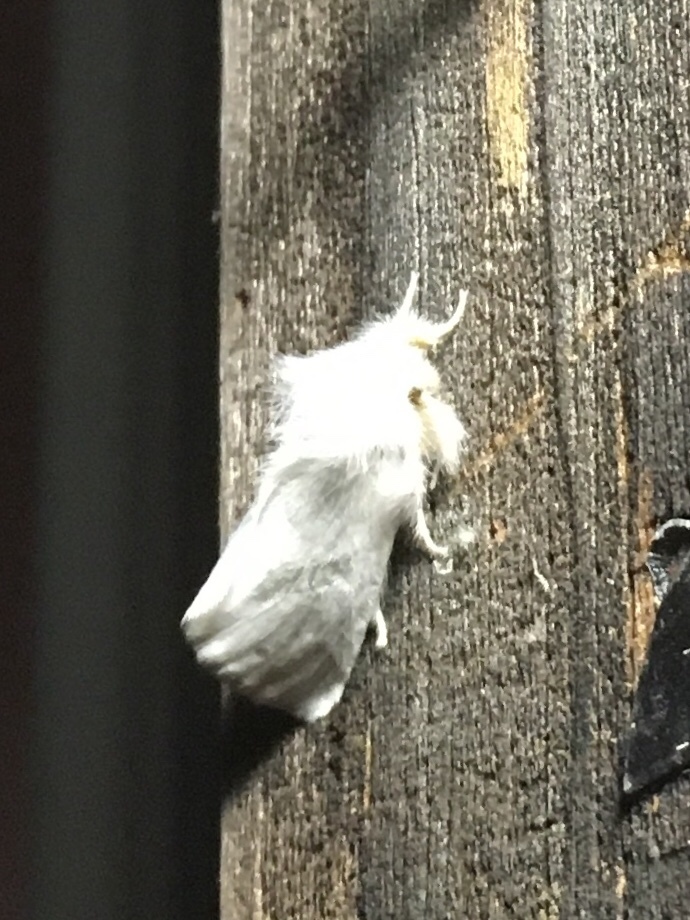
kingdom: Animalia
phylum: Arthropoda
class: Insecta
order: Lepidoptera
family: Erebidae
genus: Euproctis
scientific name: Euproctis chrysorrhoea
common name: Brown-tail
